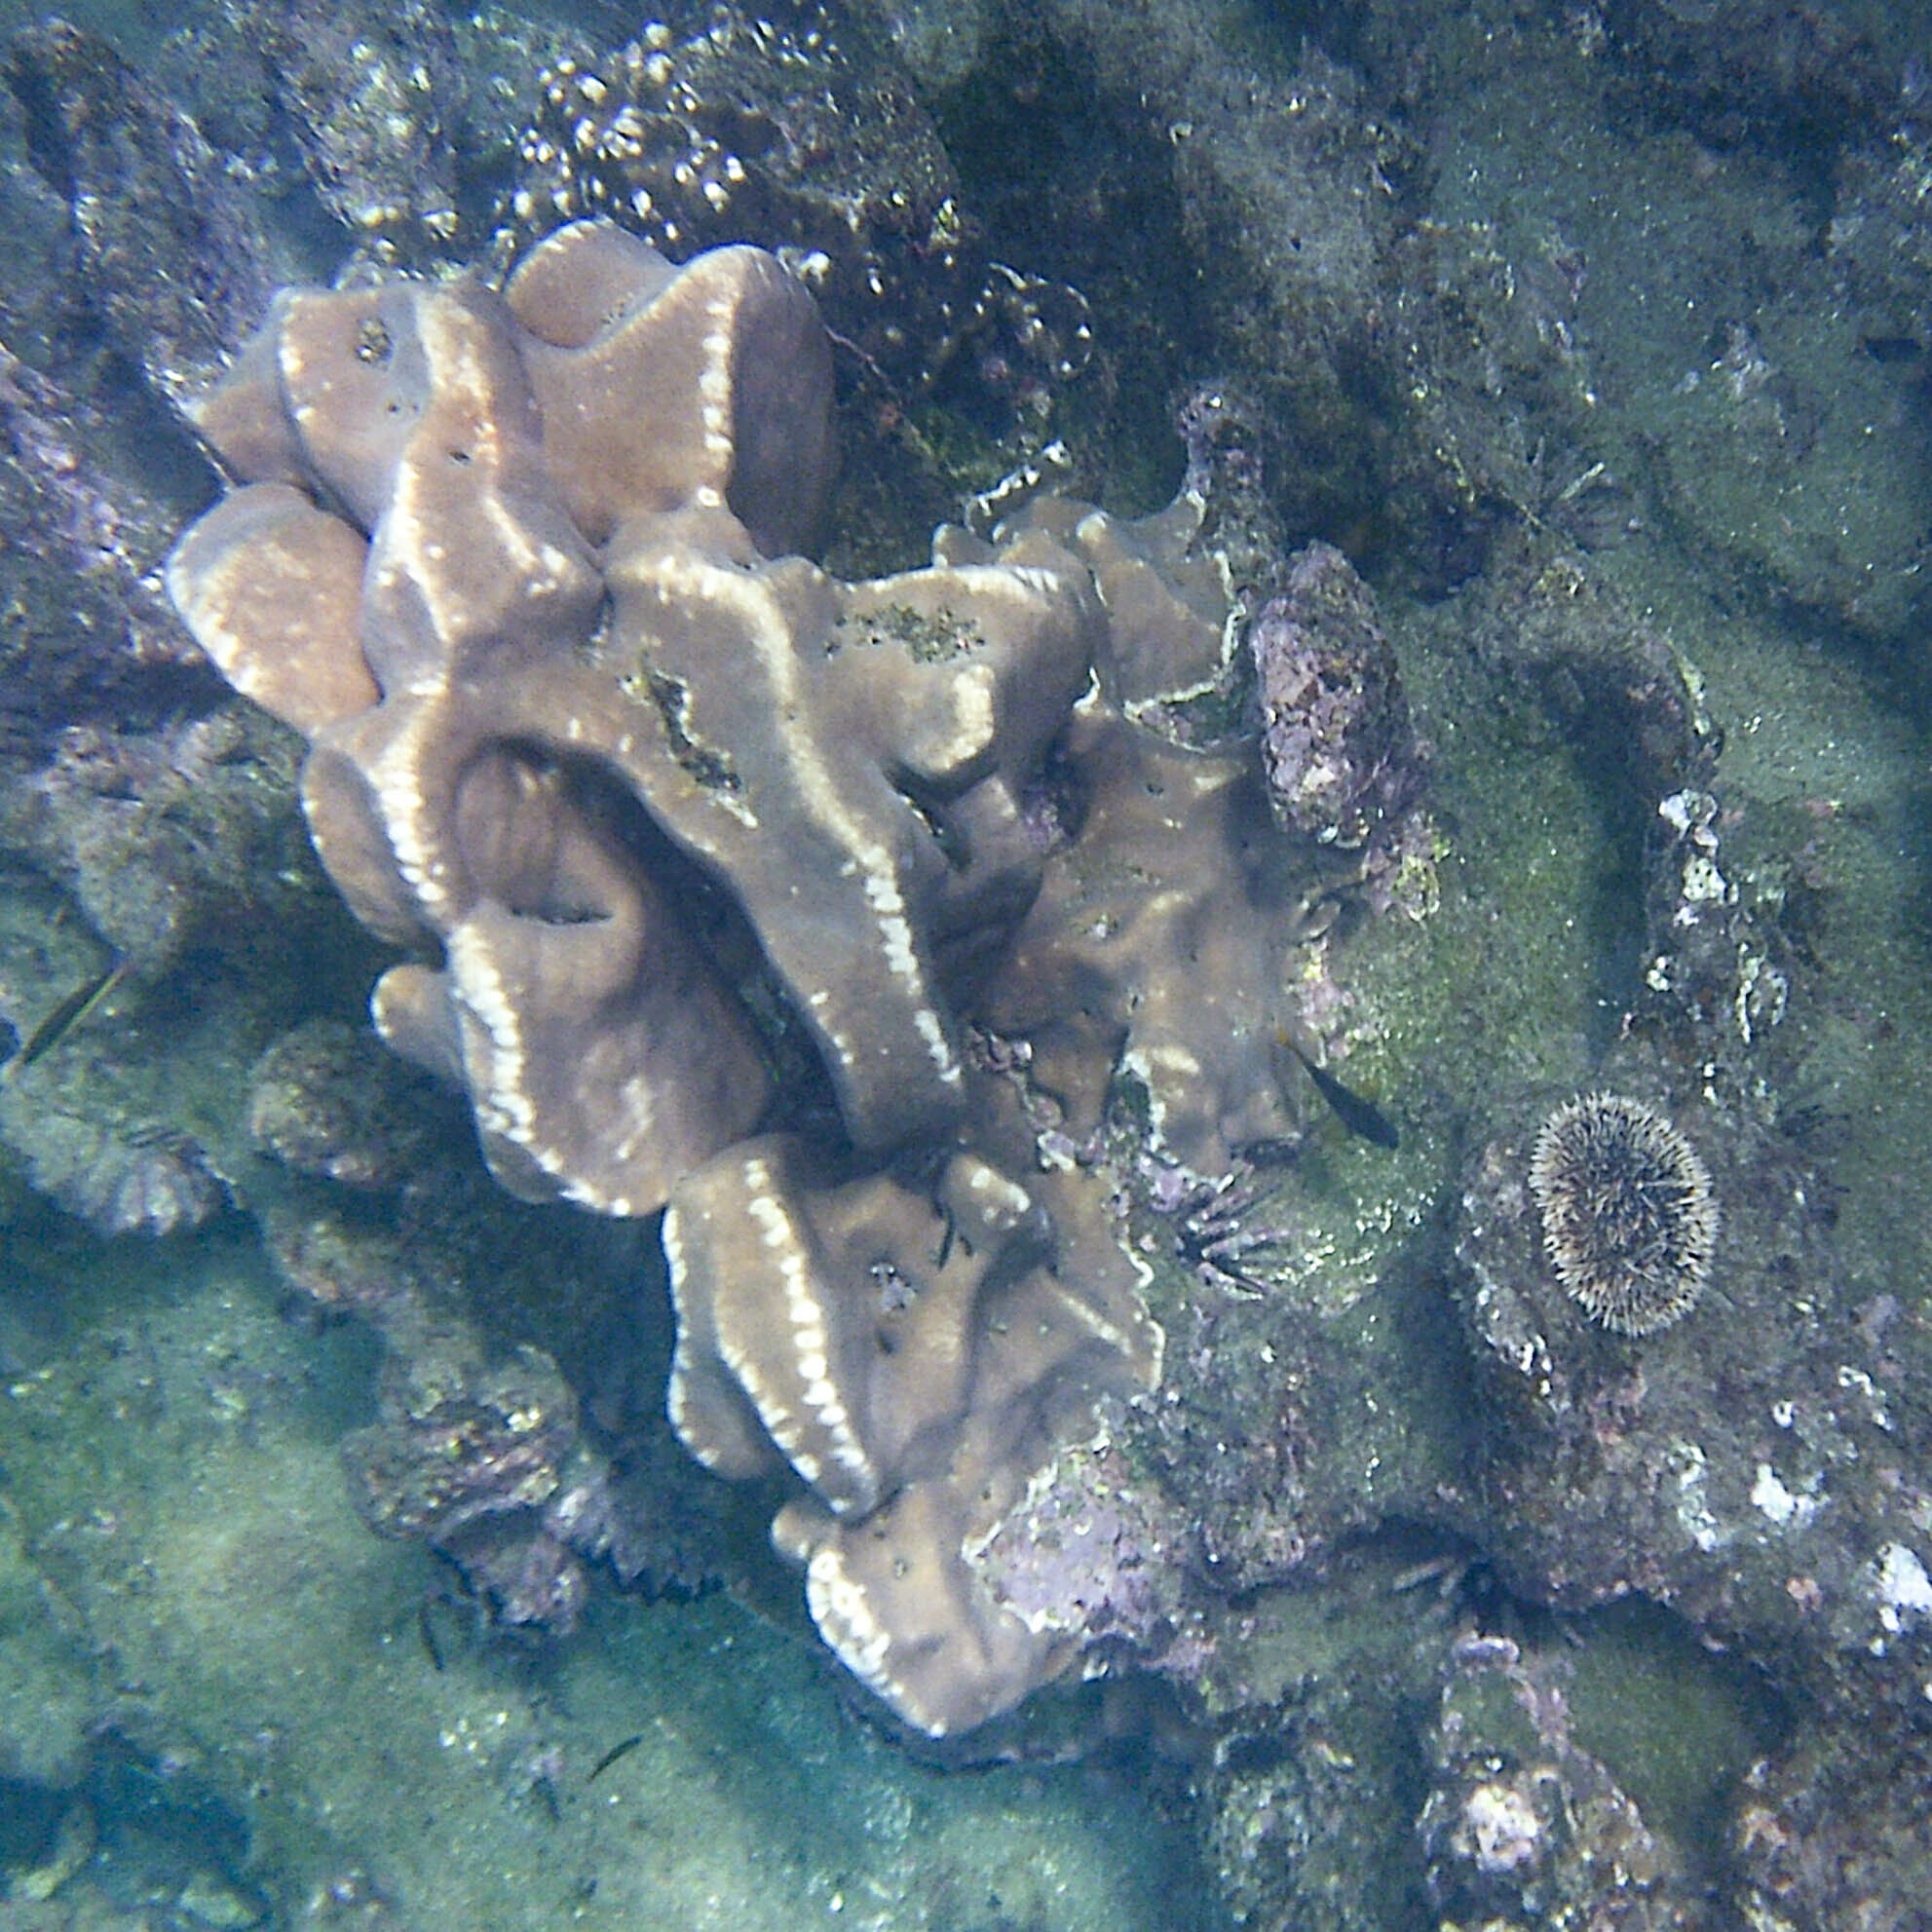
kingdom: Animalia
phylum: Echinodermata
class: Echinoidea
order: Camarodonta
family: Toxopneustidae
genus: Tripneustes
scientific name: Tripneustes depressus
